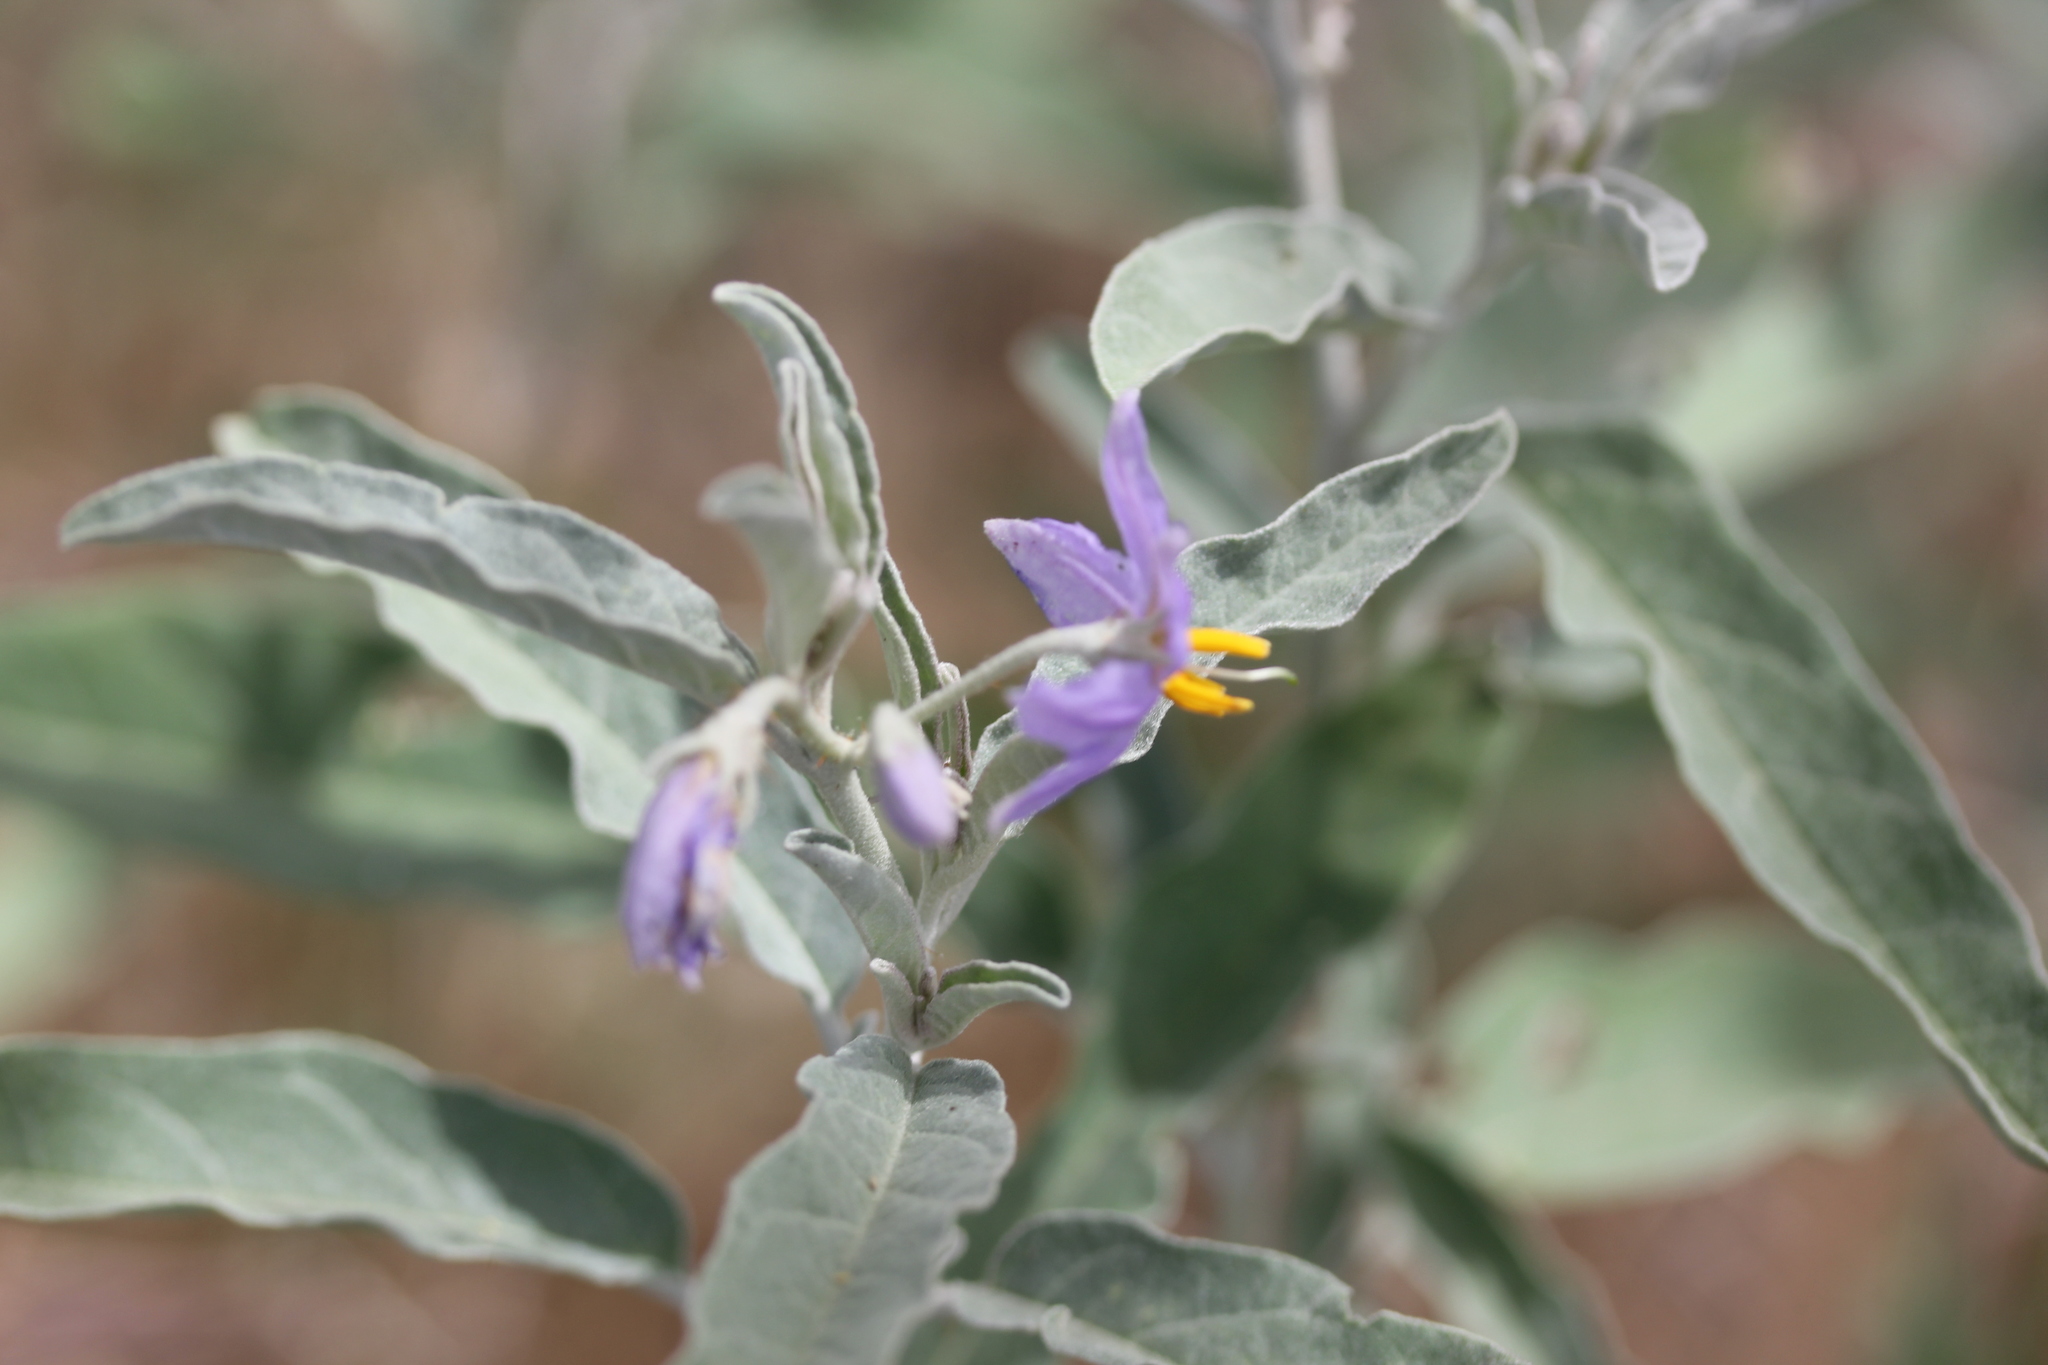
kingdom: Plantae
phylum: Tracheophyta
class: Magnoliopsida
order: Solanales
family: Solanaceae
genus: Solanum
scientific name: Solanum elaeagnifolium
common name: Silverleaf nightshade
